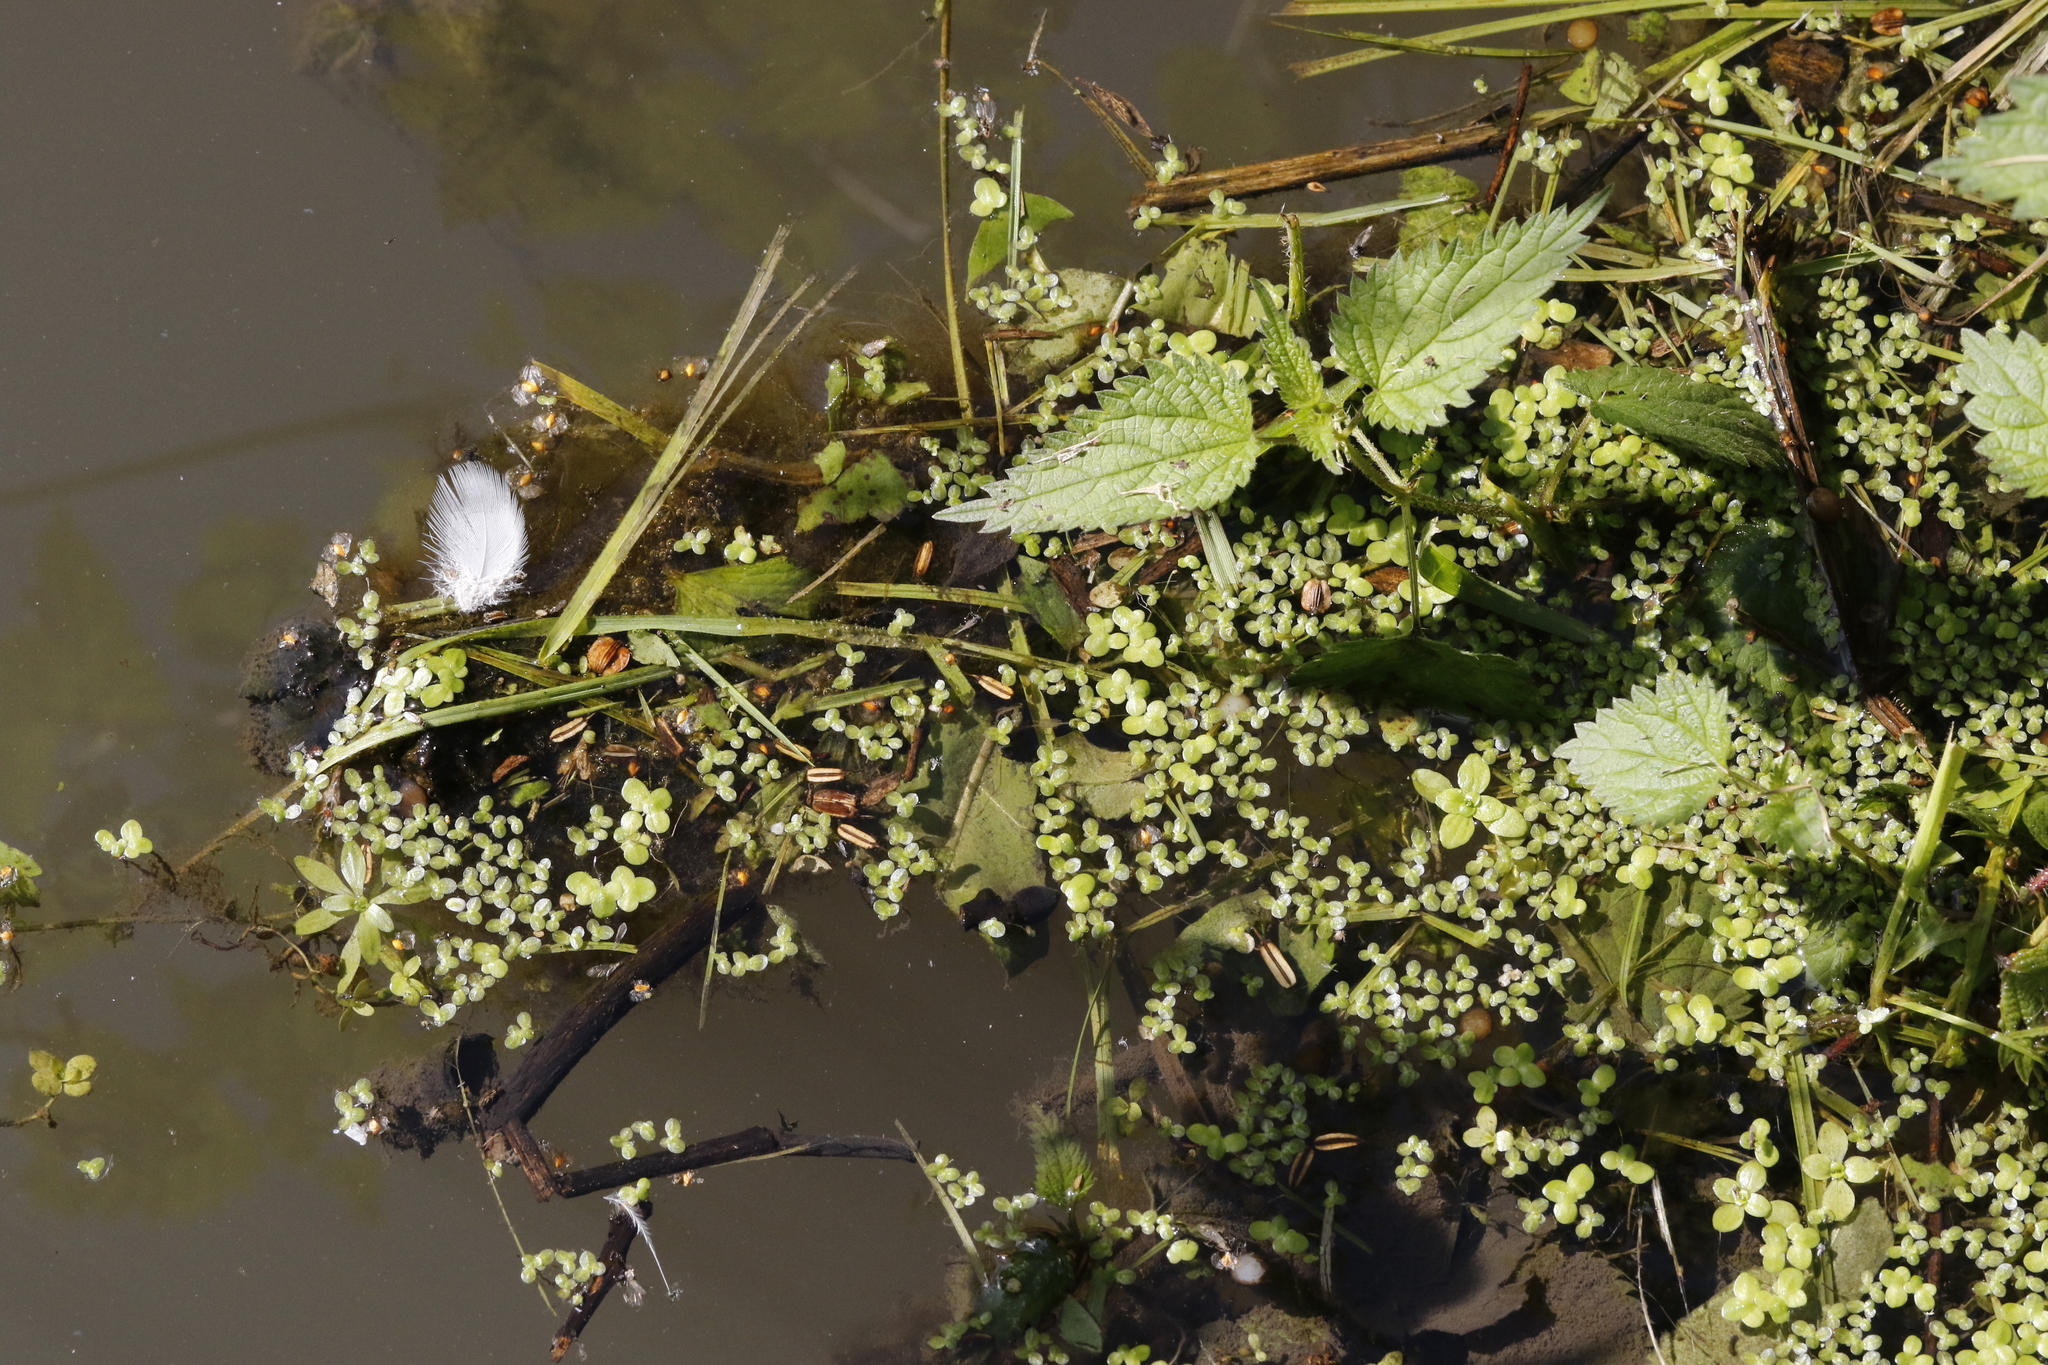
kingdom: Plantae
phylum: Tracheophyta
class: Liliopsida
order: Alismatales
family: Araceae
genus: Lemna
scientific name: Lemna minor
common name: Common duckweed
